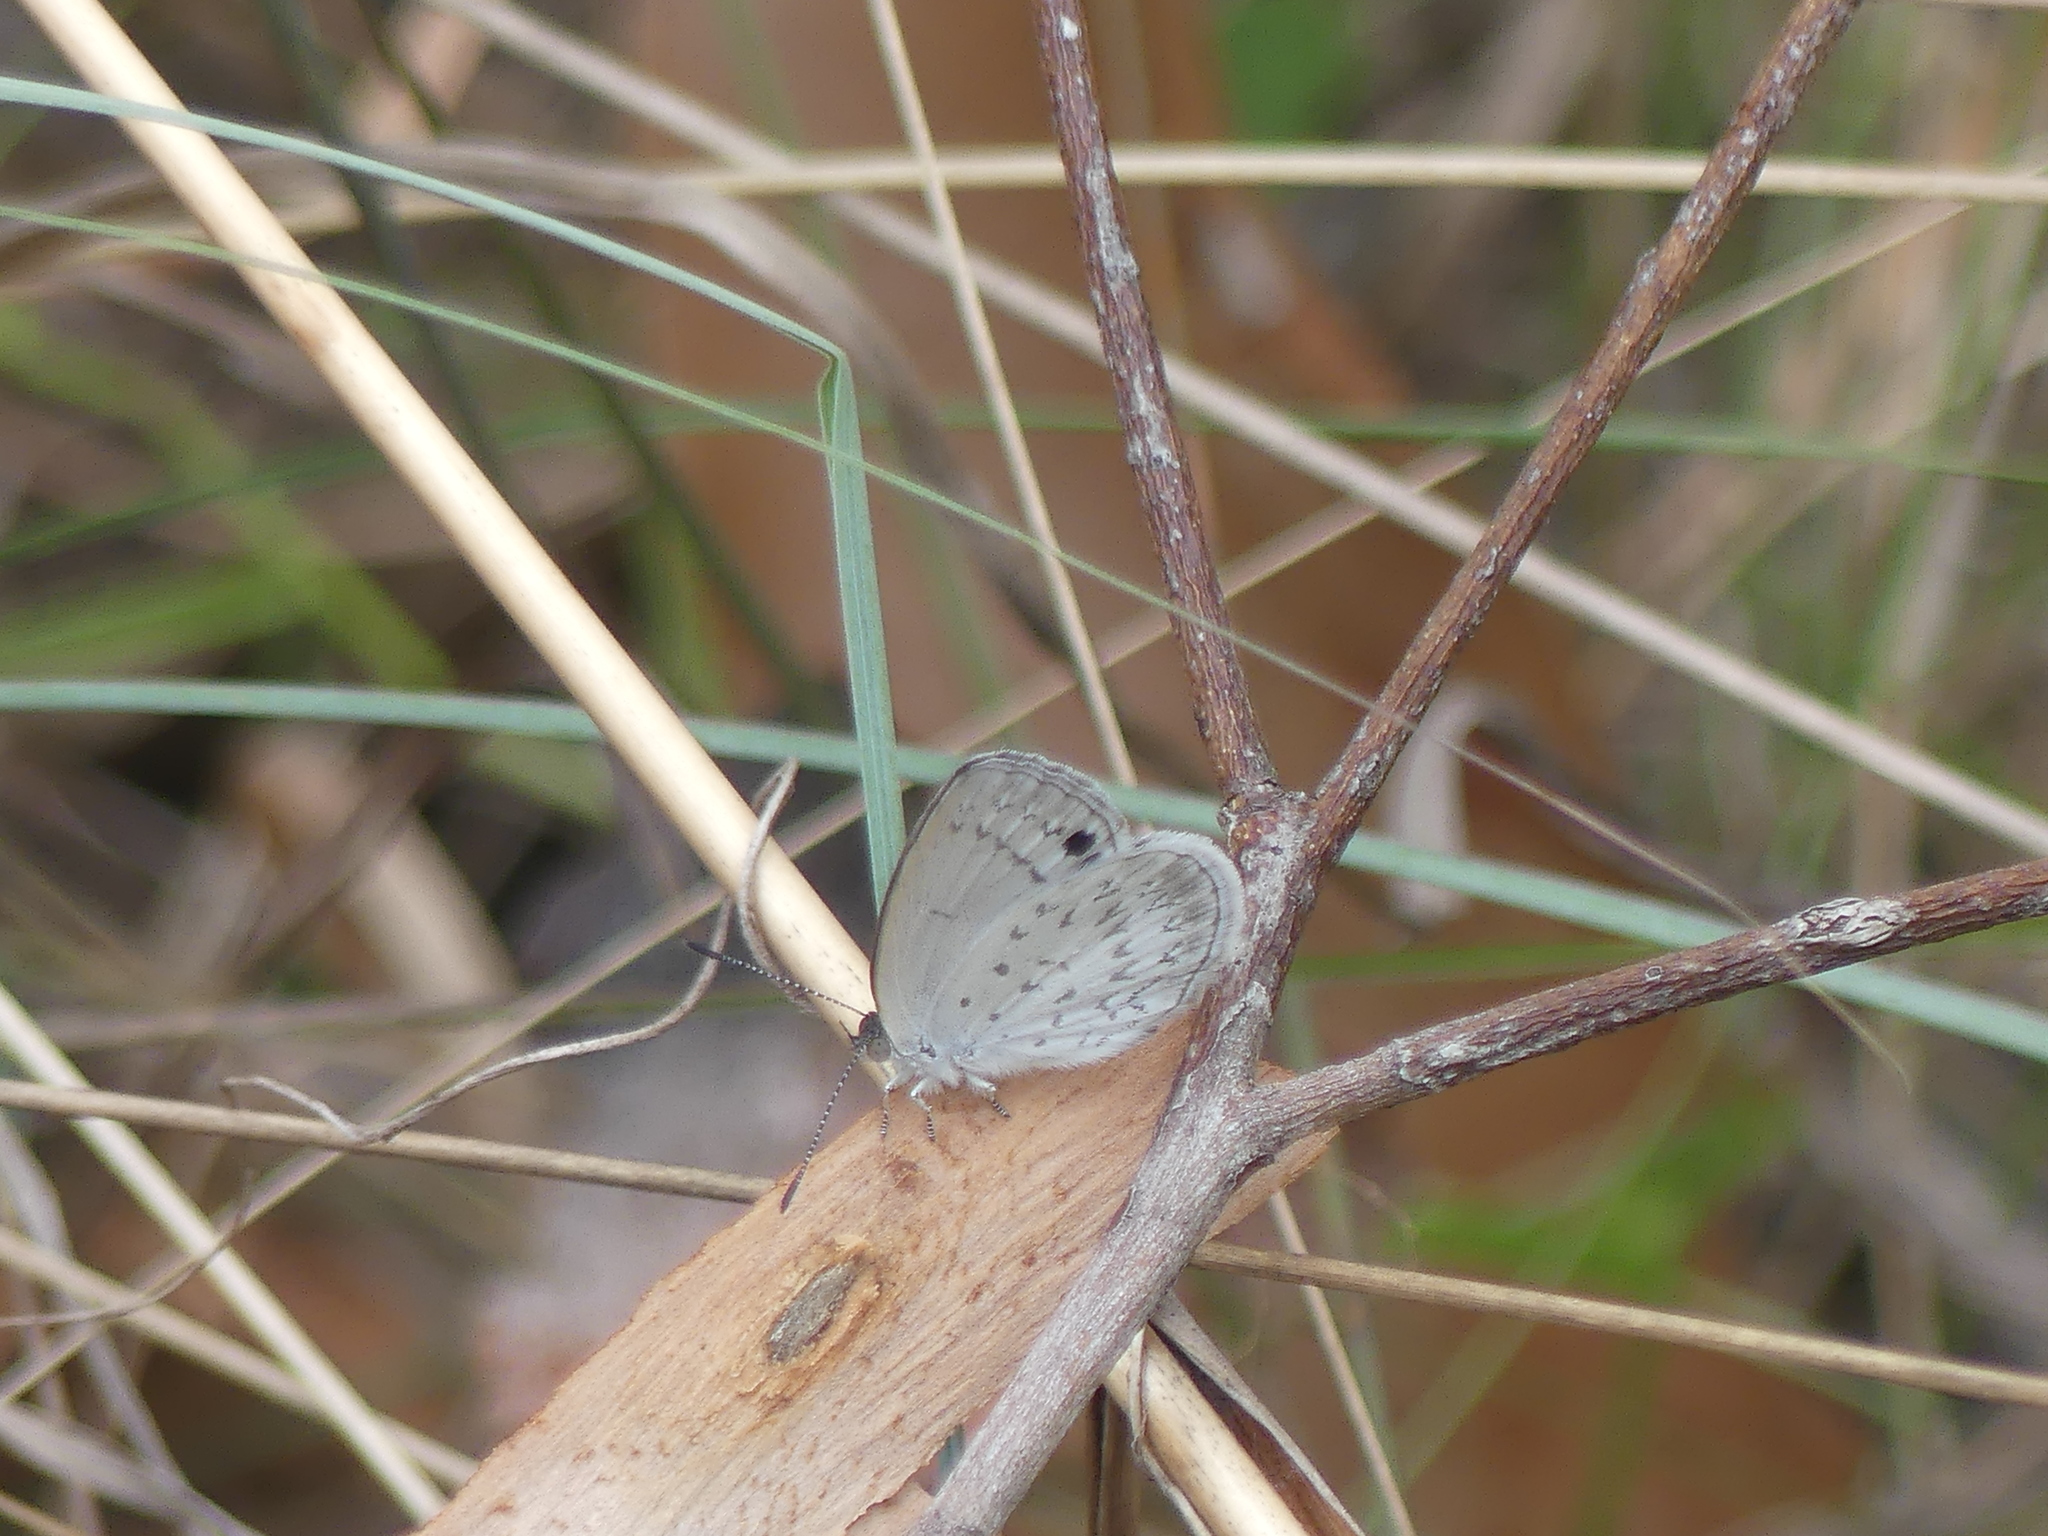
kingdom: Animalia
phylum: Arthropoda
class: Insecta
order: Lepidoptera
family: Lycaenidae
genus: Candalides
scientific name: Candalides
